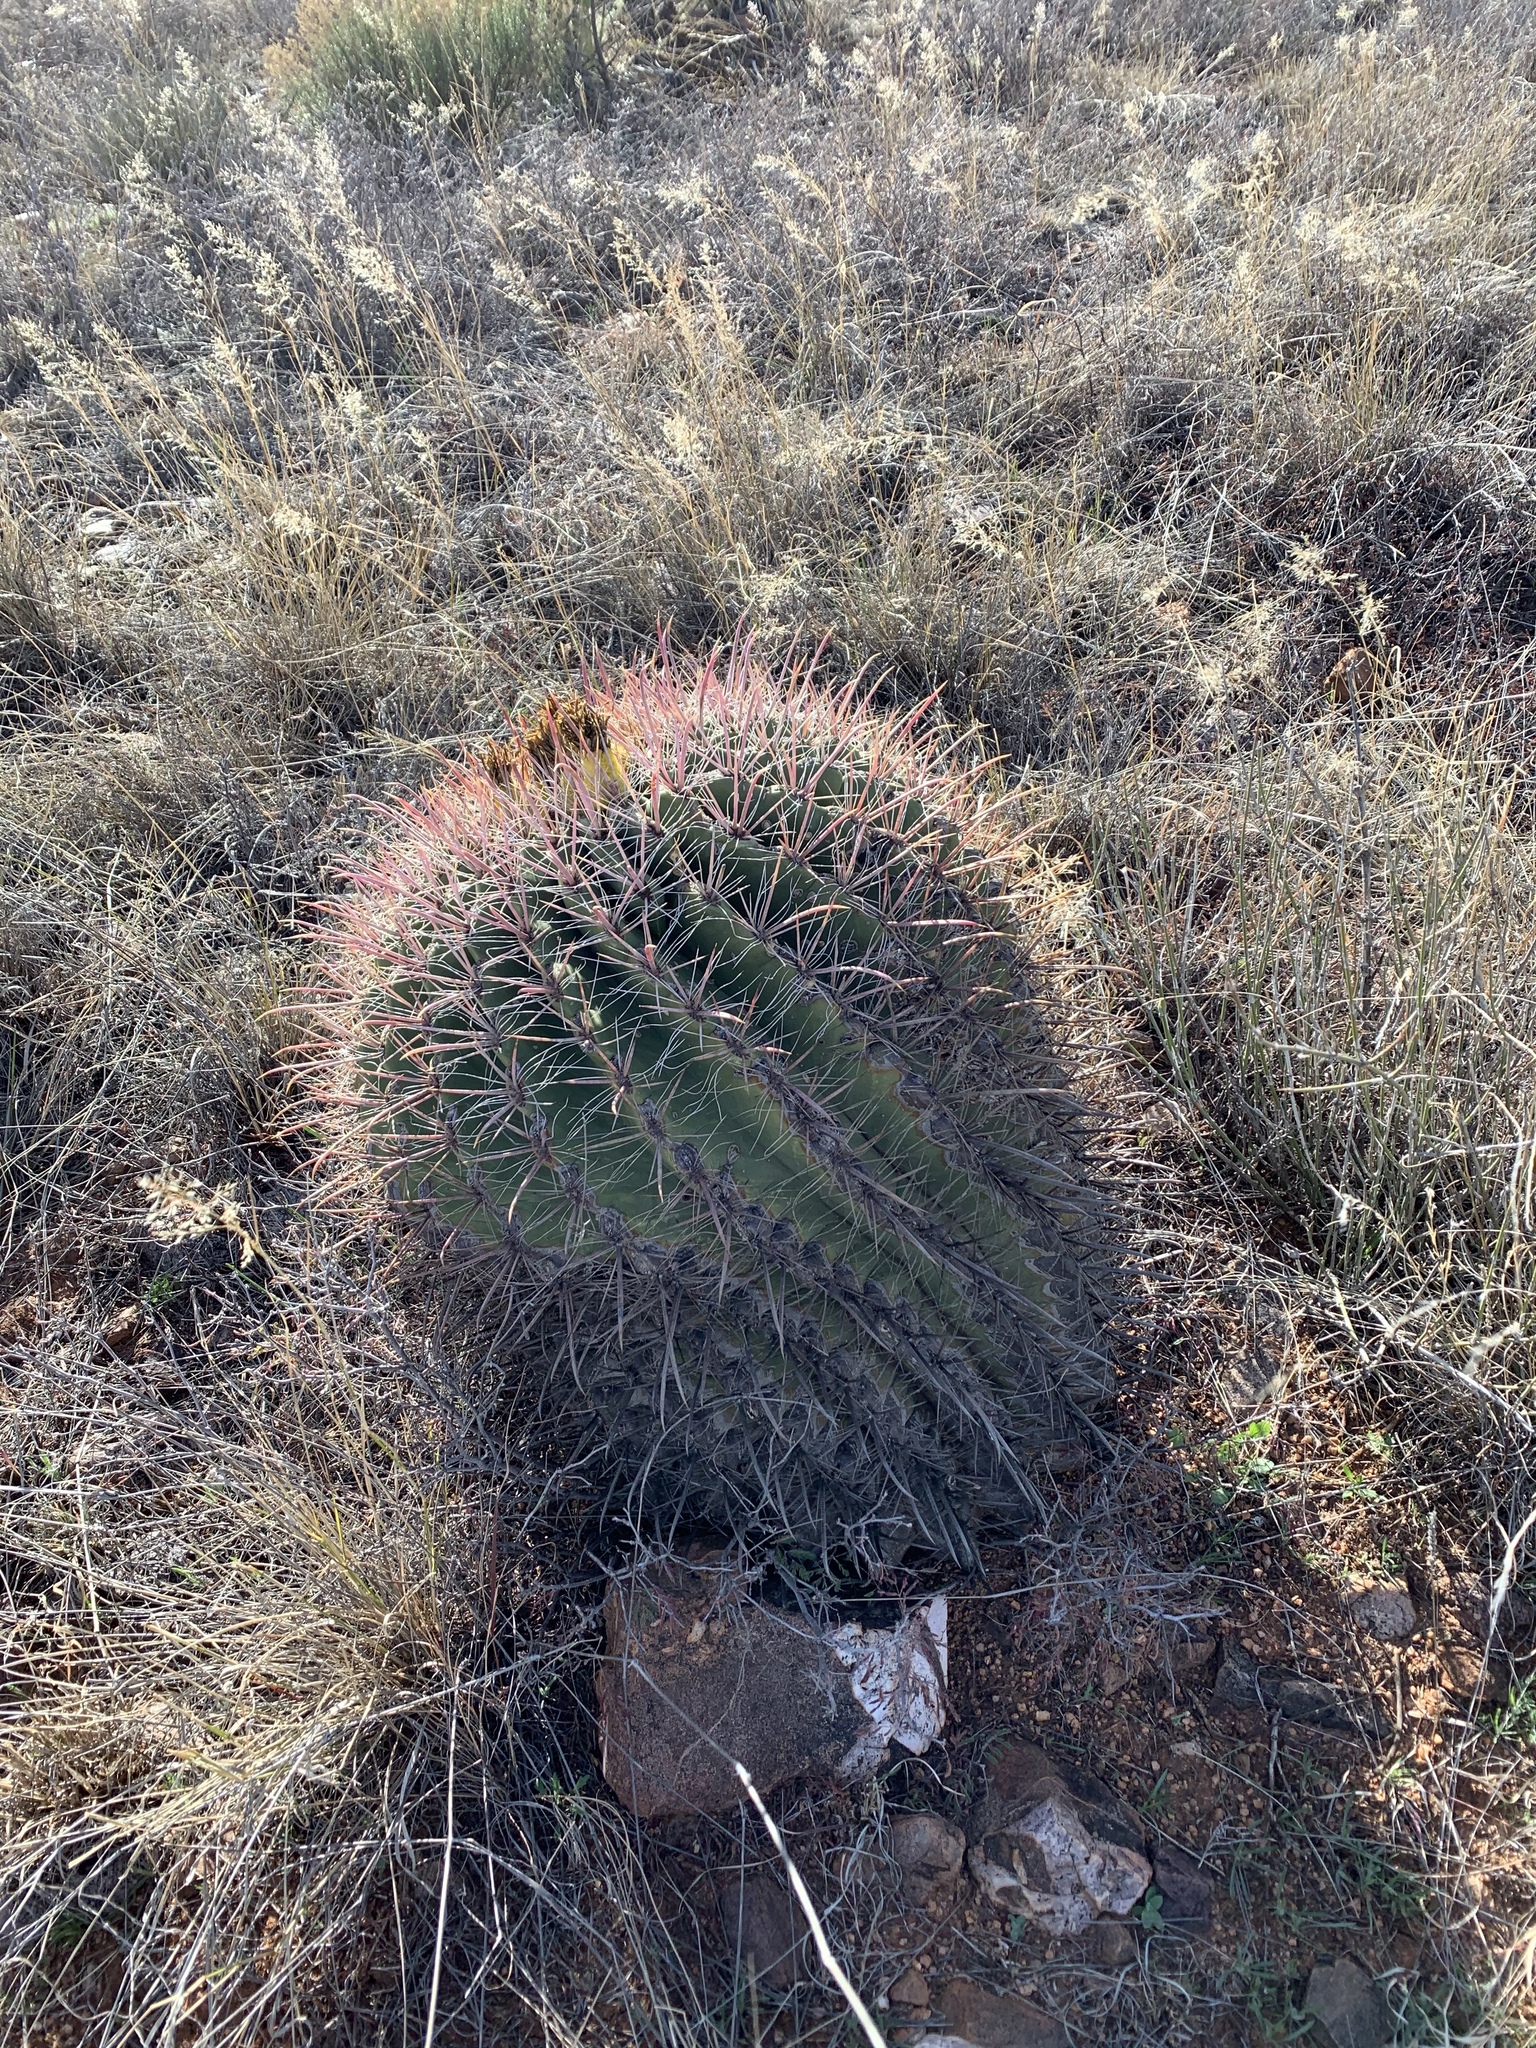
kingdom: Plantae
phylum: Tracheophyta
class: Magnoliopsida
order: Caryophyllales
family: Cactaceae
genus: Ferocactus
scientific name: Ferocactus wislizeni
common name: Candy barrel cactus
